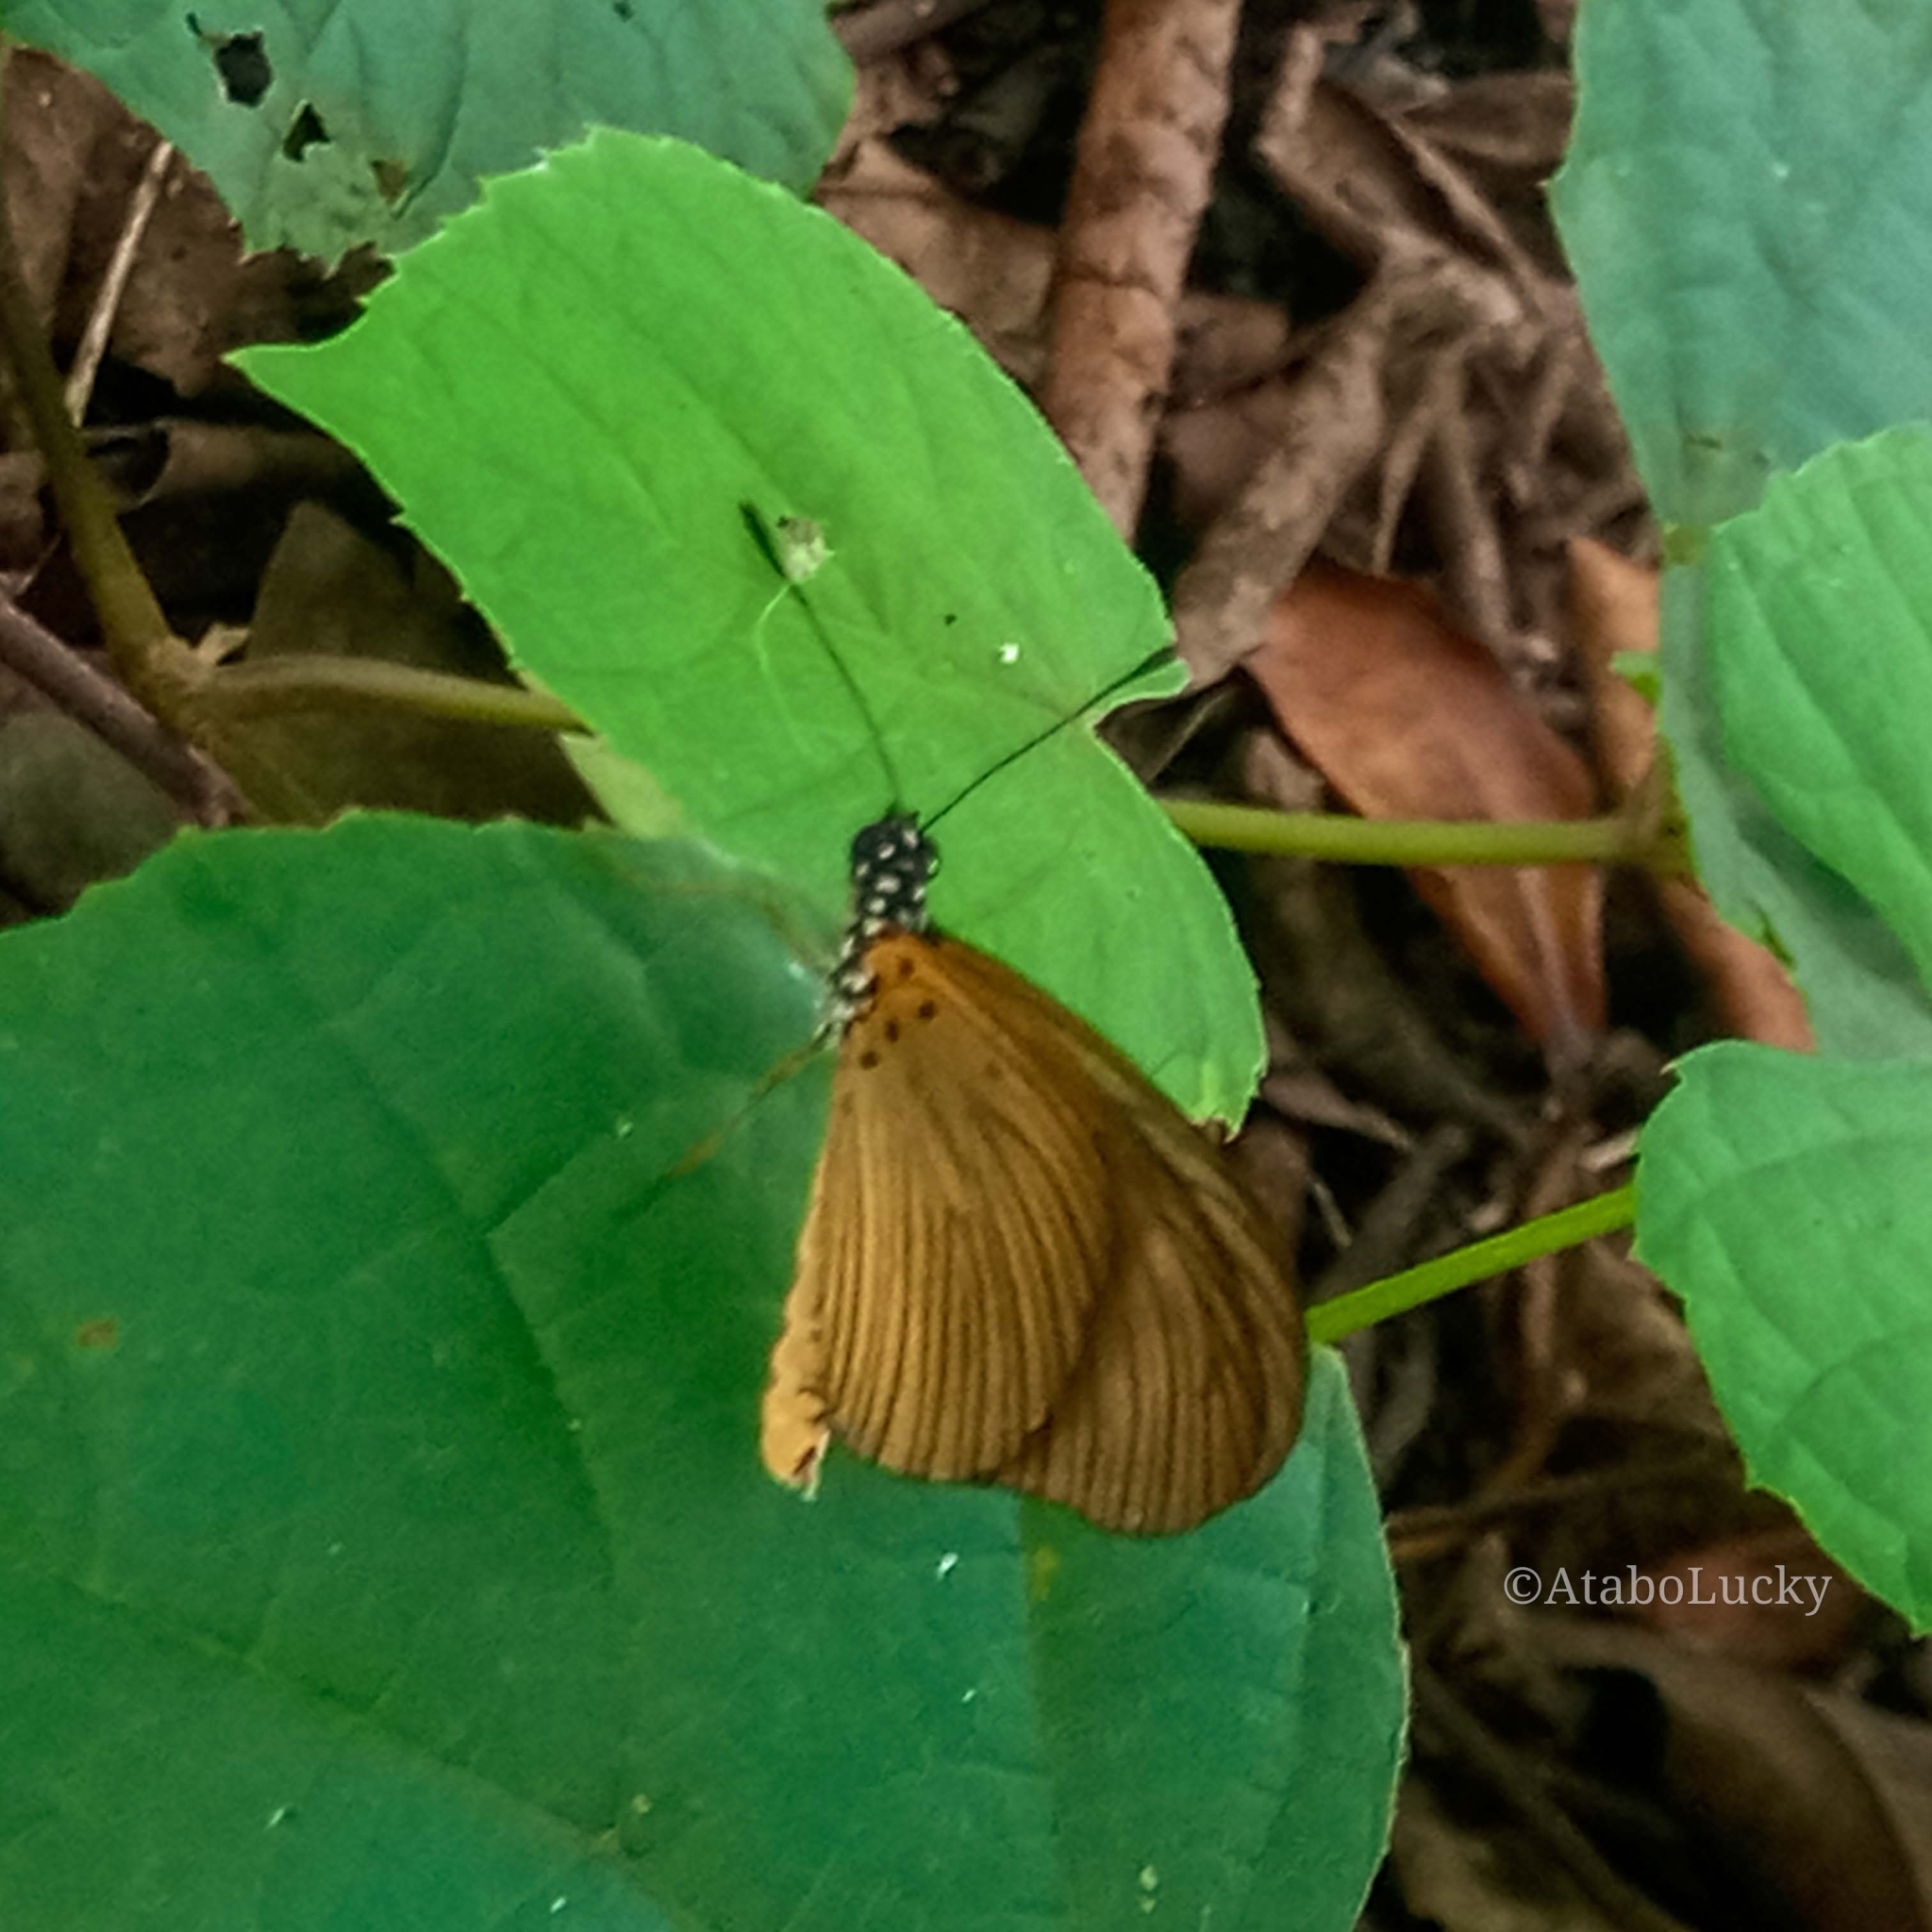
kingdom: Animalia
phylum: Arthropoda
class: Insecta
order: Lepidoptera
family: Nymphalidae
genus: Acraea
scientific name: Acraea Telchinia lycoa
